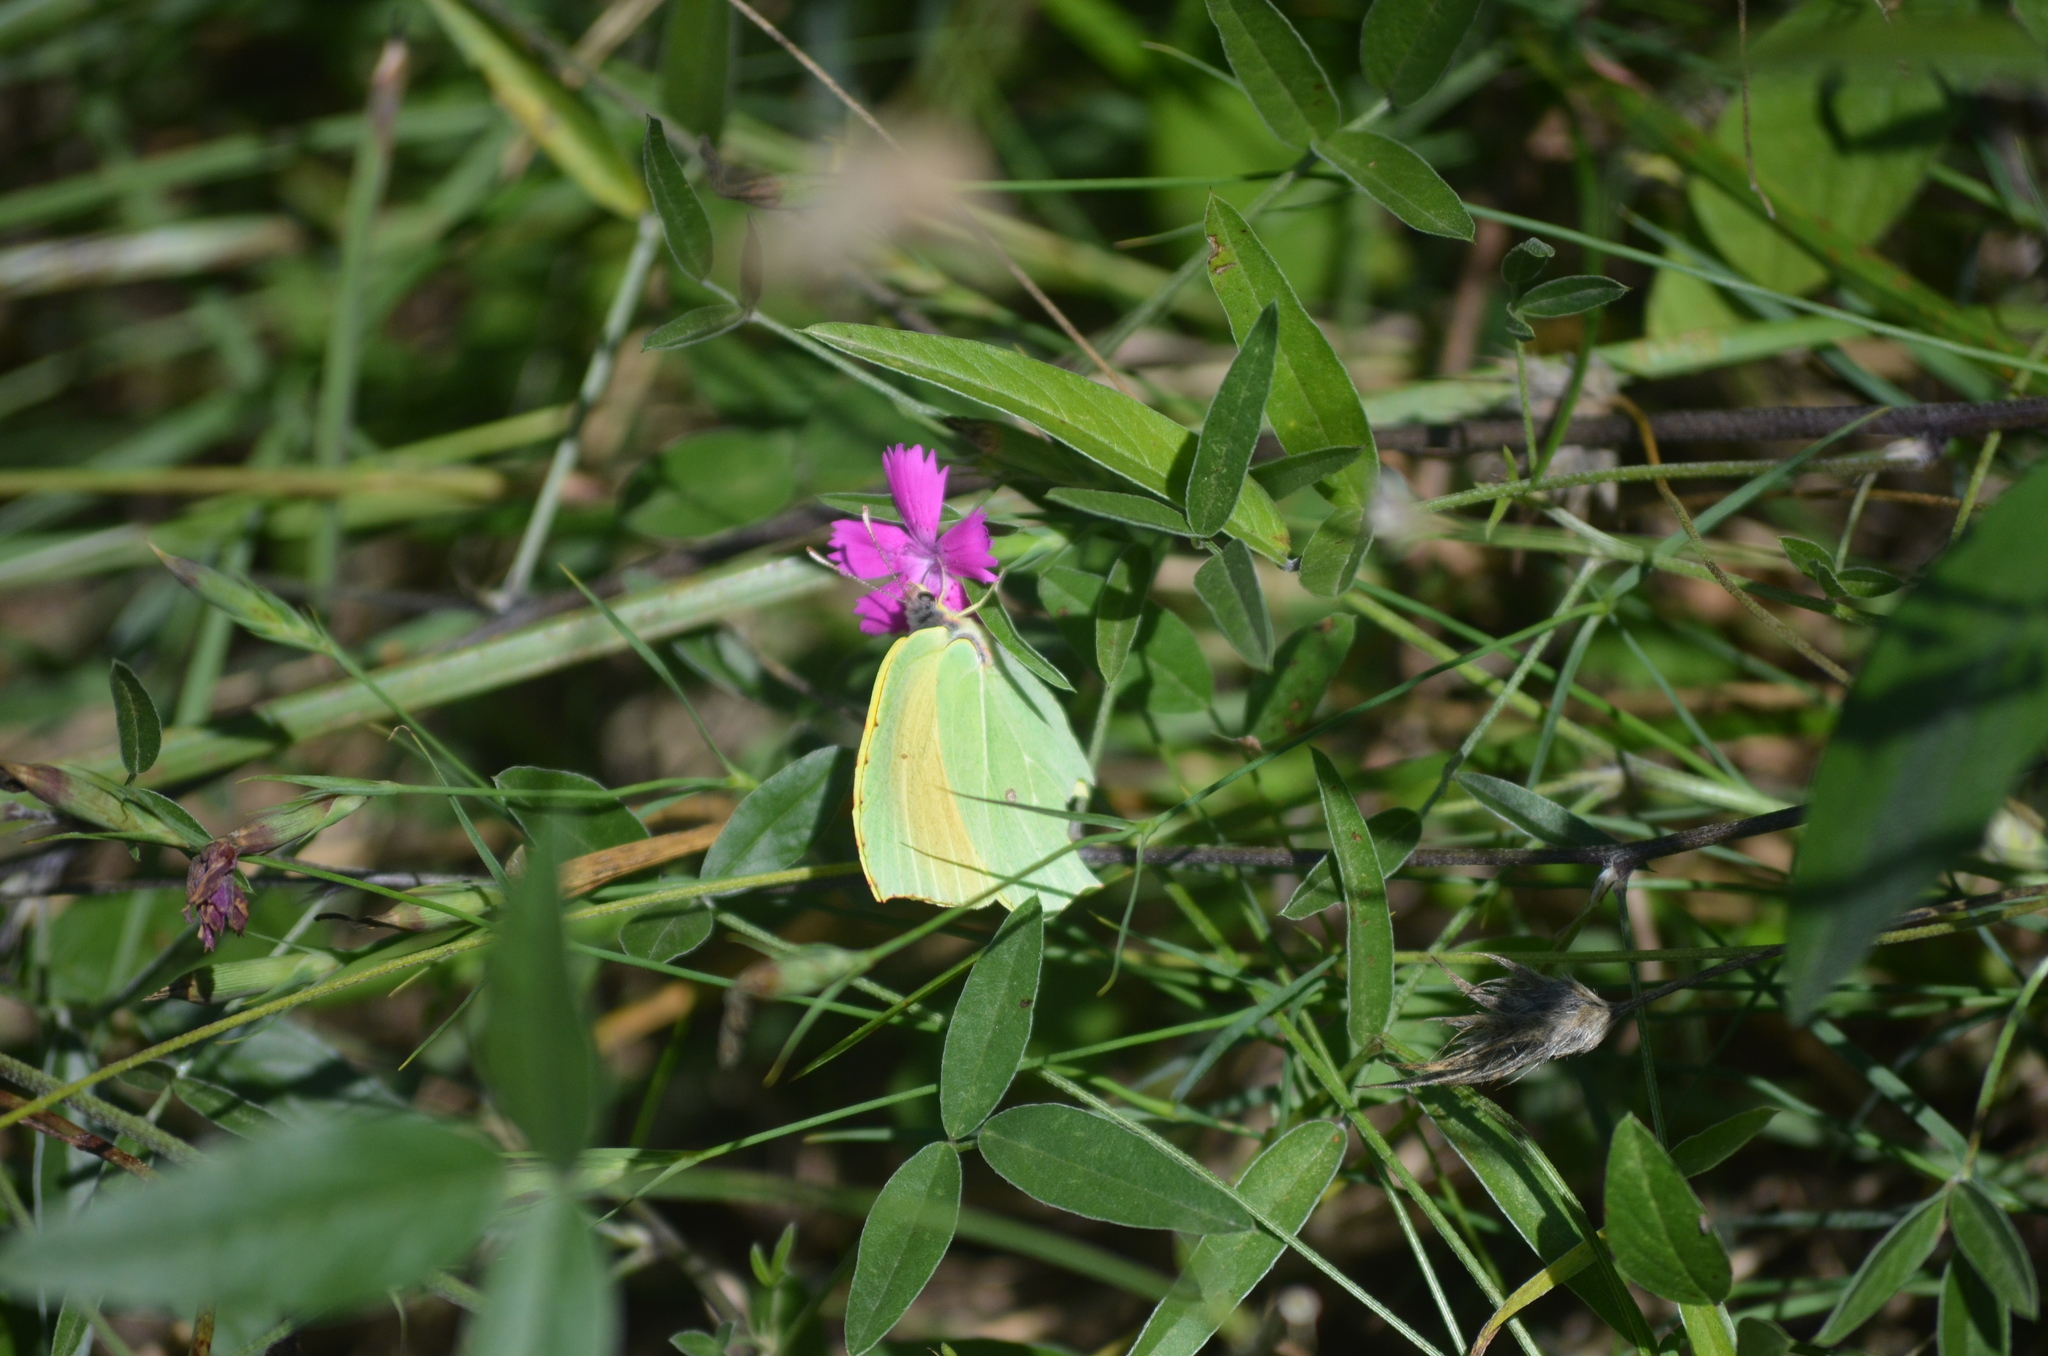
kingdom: Animalia
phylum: Arthropoda
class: Insecta
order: Lepidoptera
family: Pieridae
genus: Gonepteryx
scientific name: Gonepteryx cleopatra
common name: Cleopatra
